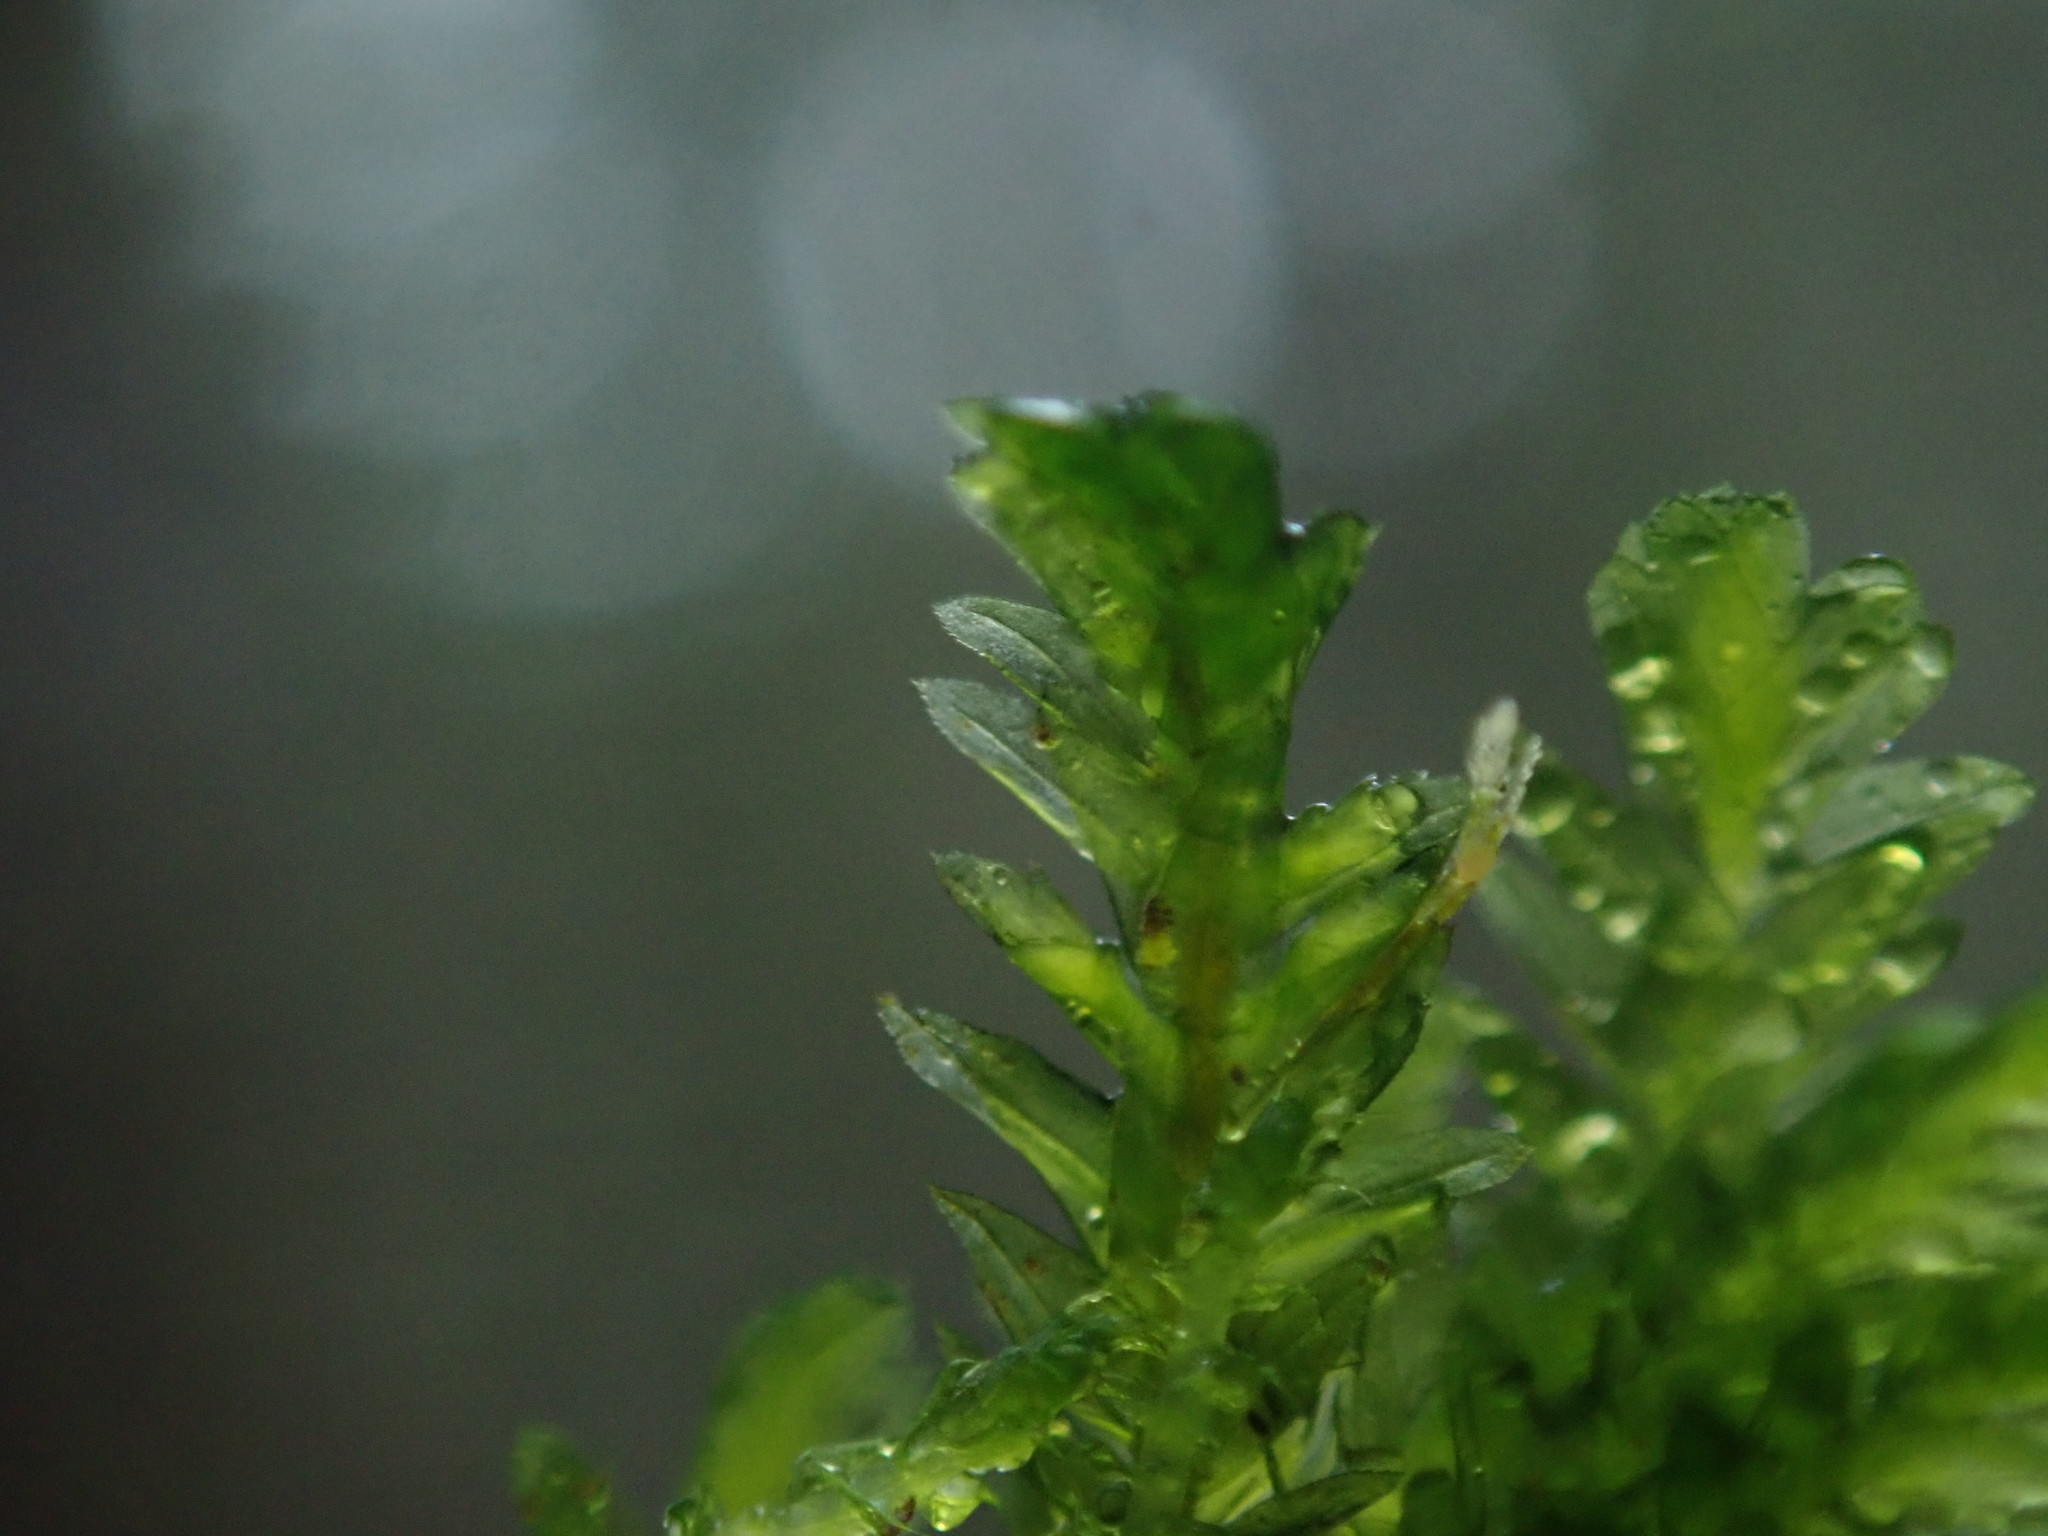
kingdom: Plantae
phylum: Bryophyta
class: Bryopsida
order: Hypnales
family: Neckeraceae
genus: Dannorrisia
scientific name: Dannorrisia bigelovii
